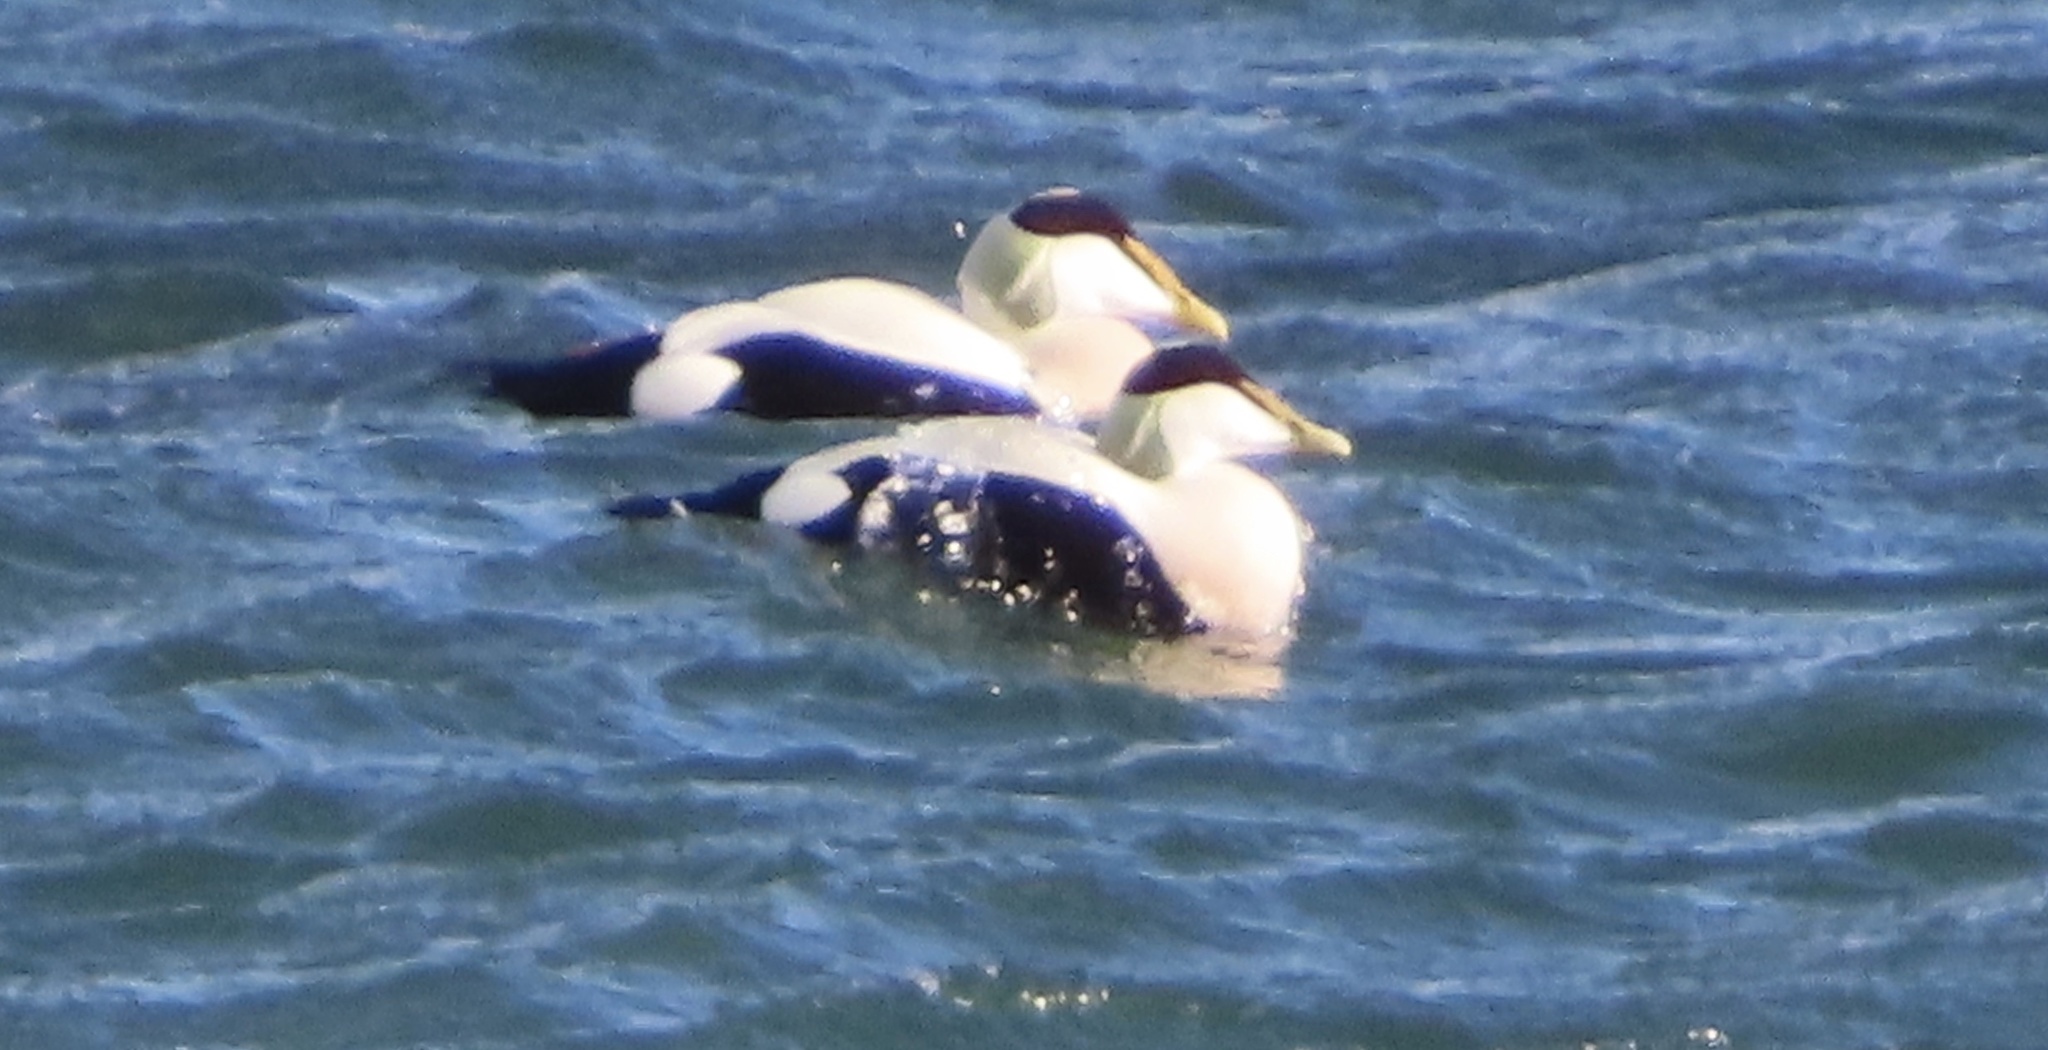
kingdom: Animalia
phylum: Chordata
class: Aves
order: Anseriformes
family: Anatidae
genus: Somateria
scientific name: Somateria mollissima
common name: Common eider
